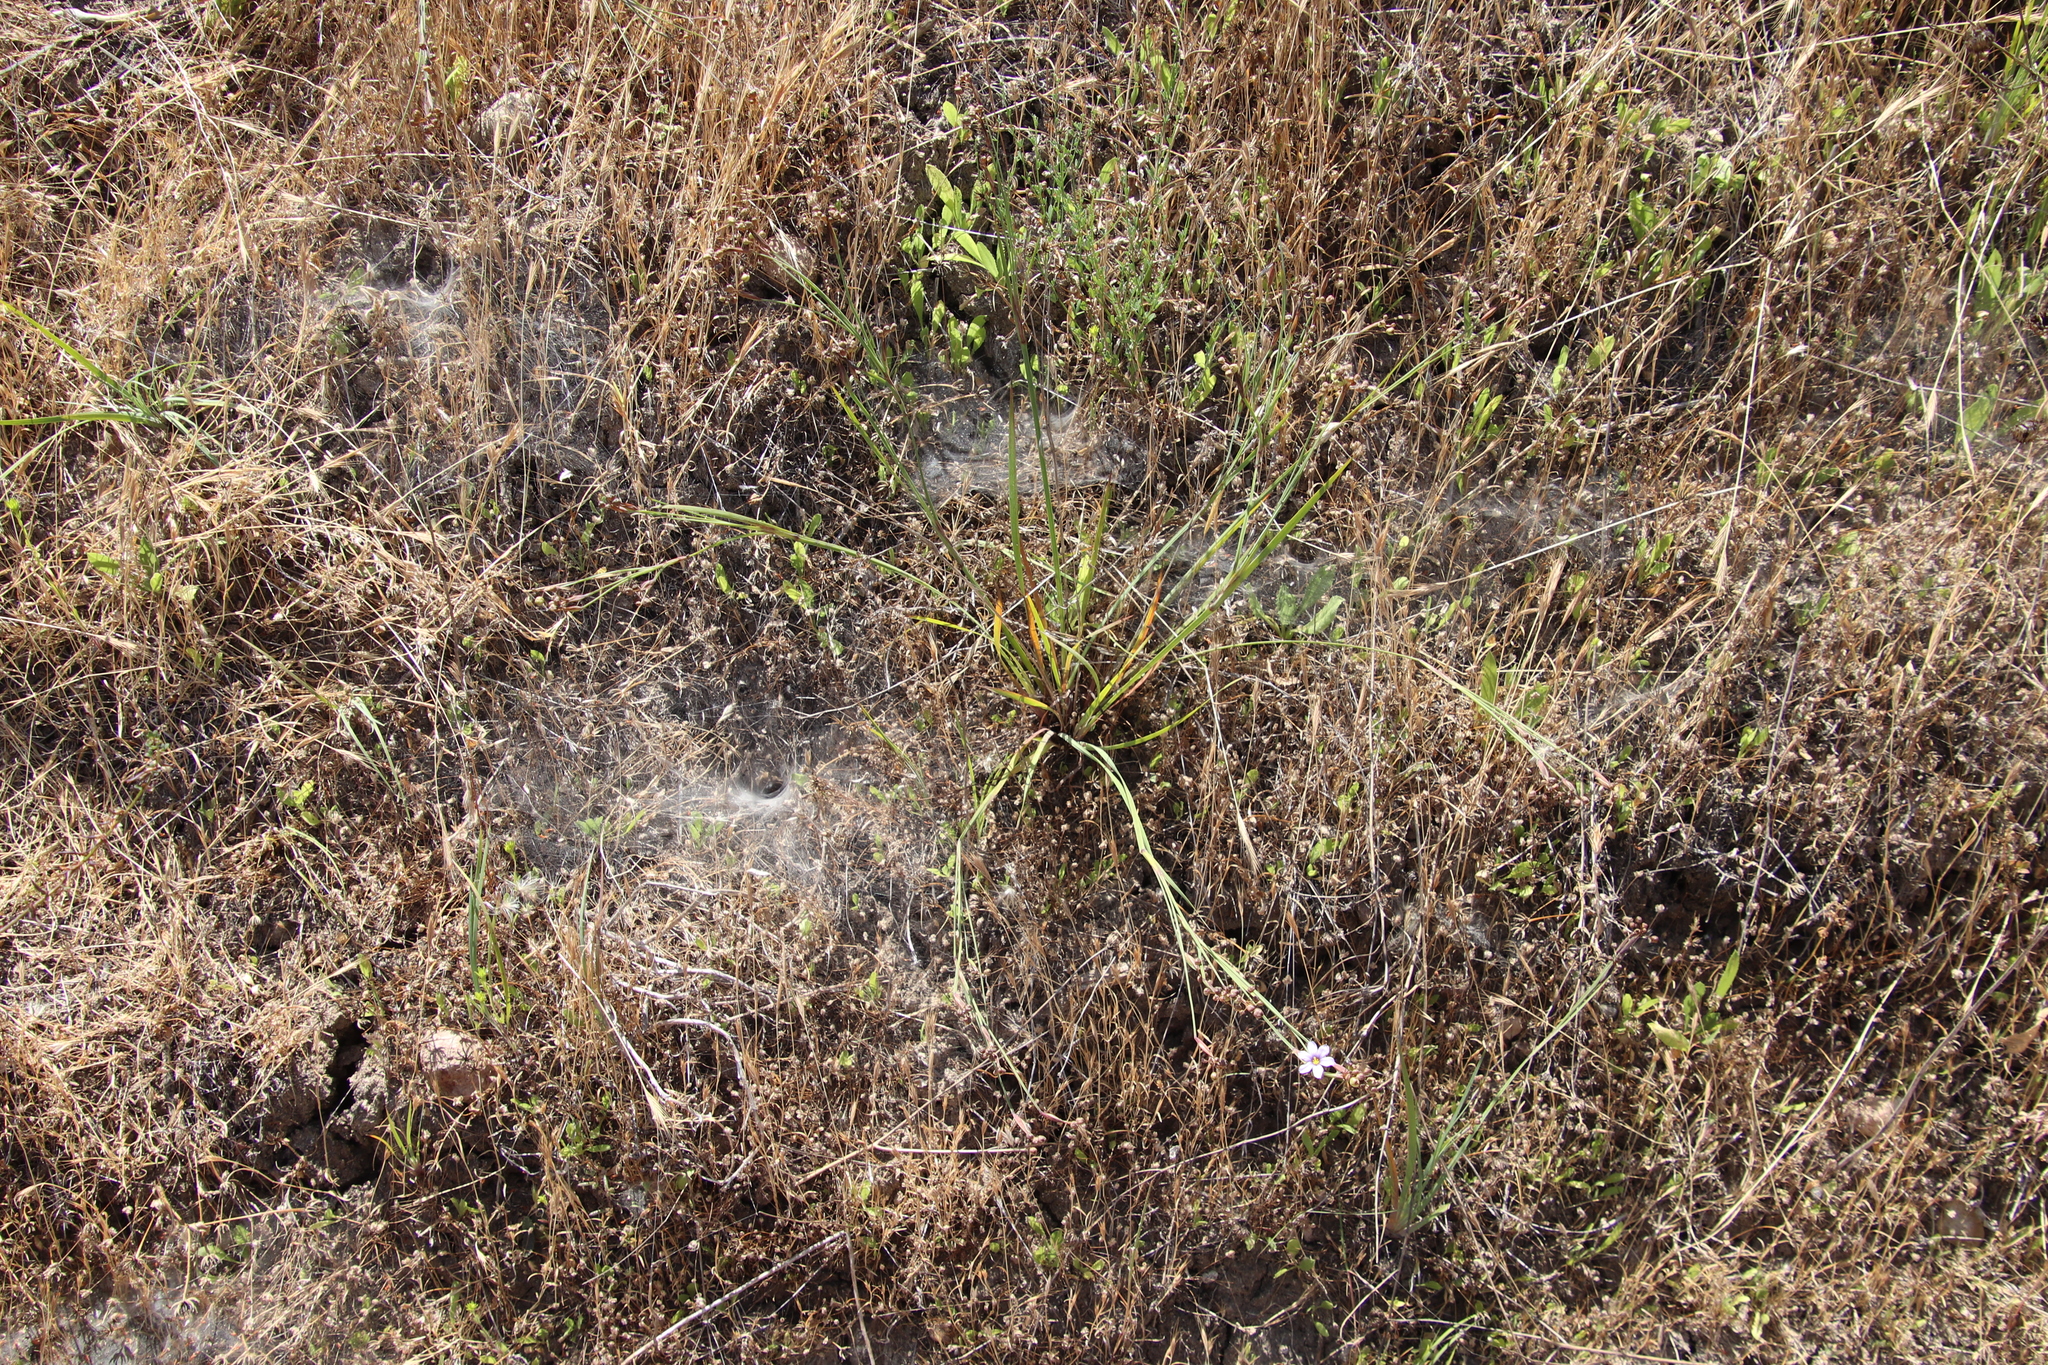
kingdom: Plantae
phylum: Tracheophyta
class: Liliopsida
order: Asparagales
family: Iridaceae
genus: Sisyrinchium
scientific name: Sisyrinchium bellum
